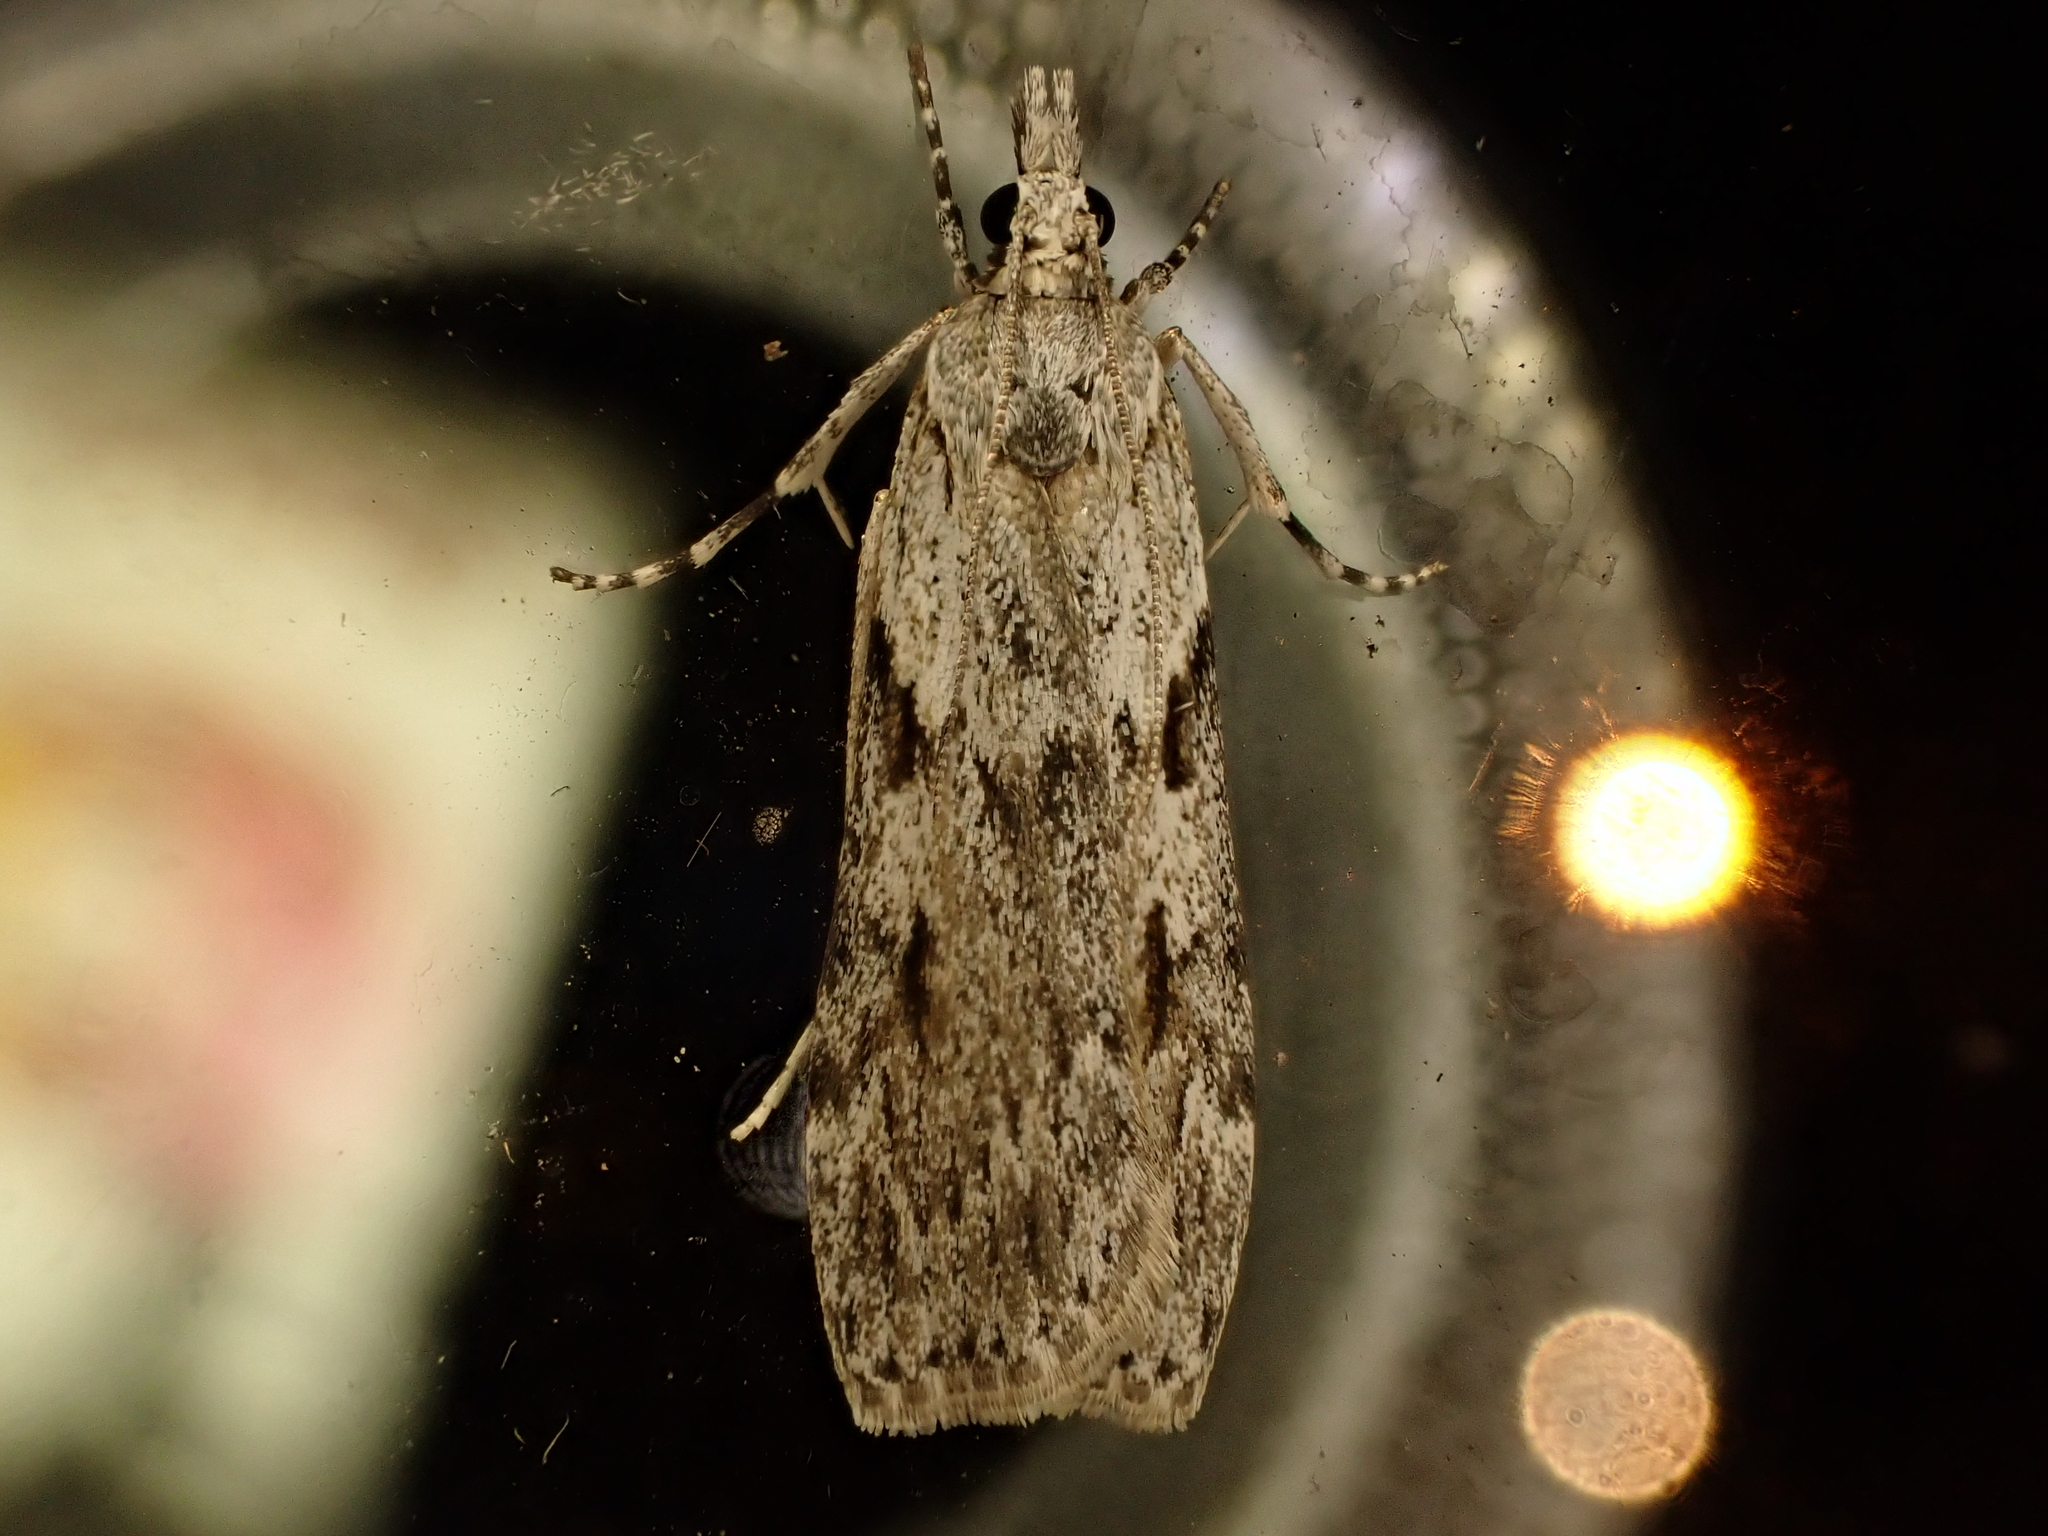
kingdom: Animalia
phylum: Arthropoda
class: Insecta
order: Lepidoptera
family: Crambidae
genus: Scoparia
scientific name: Scoparia halopis
